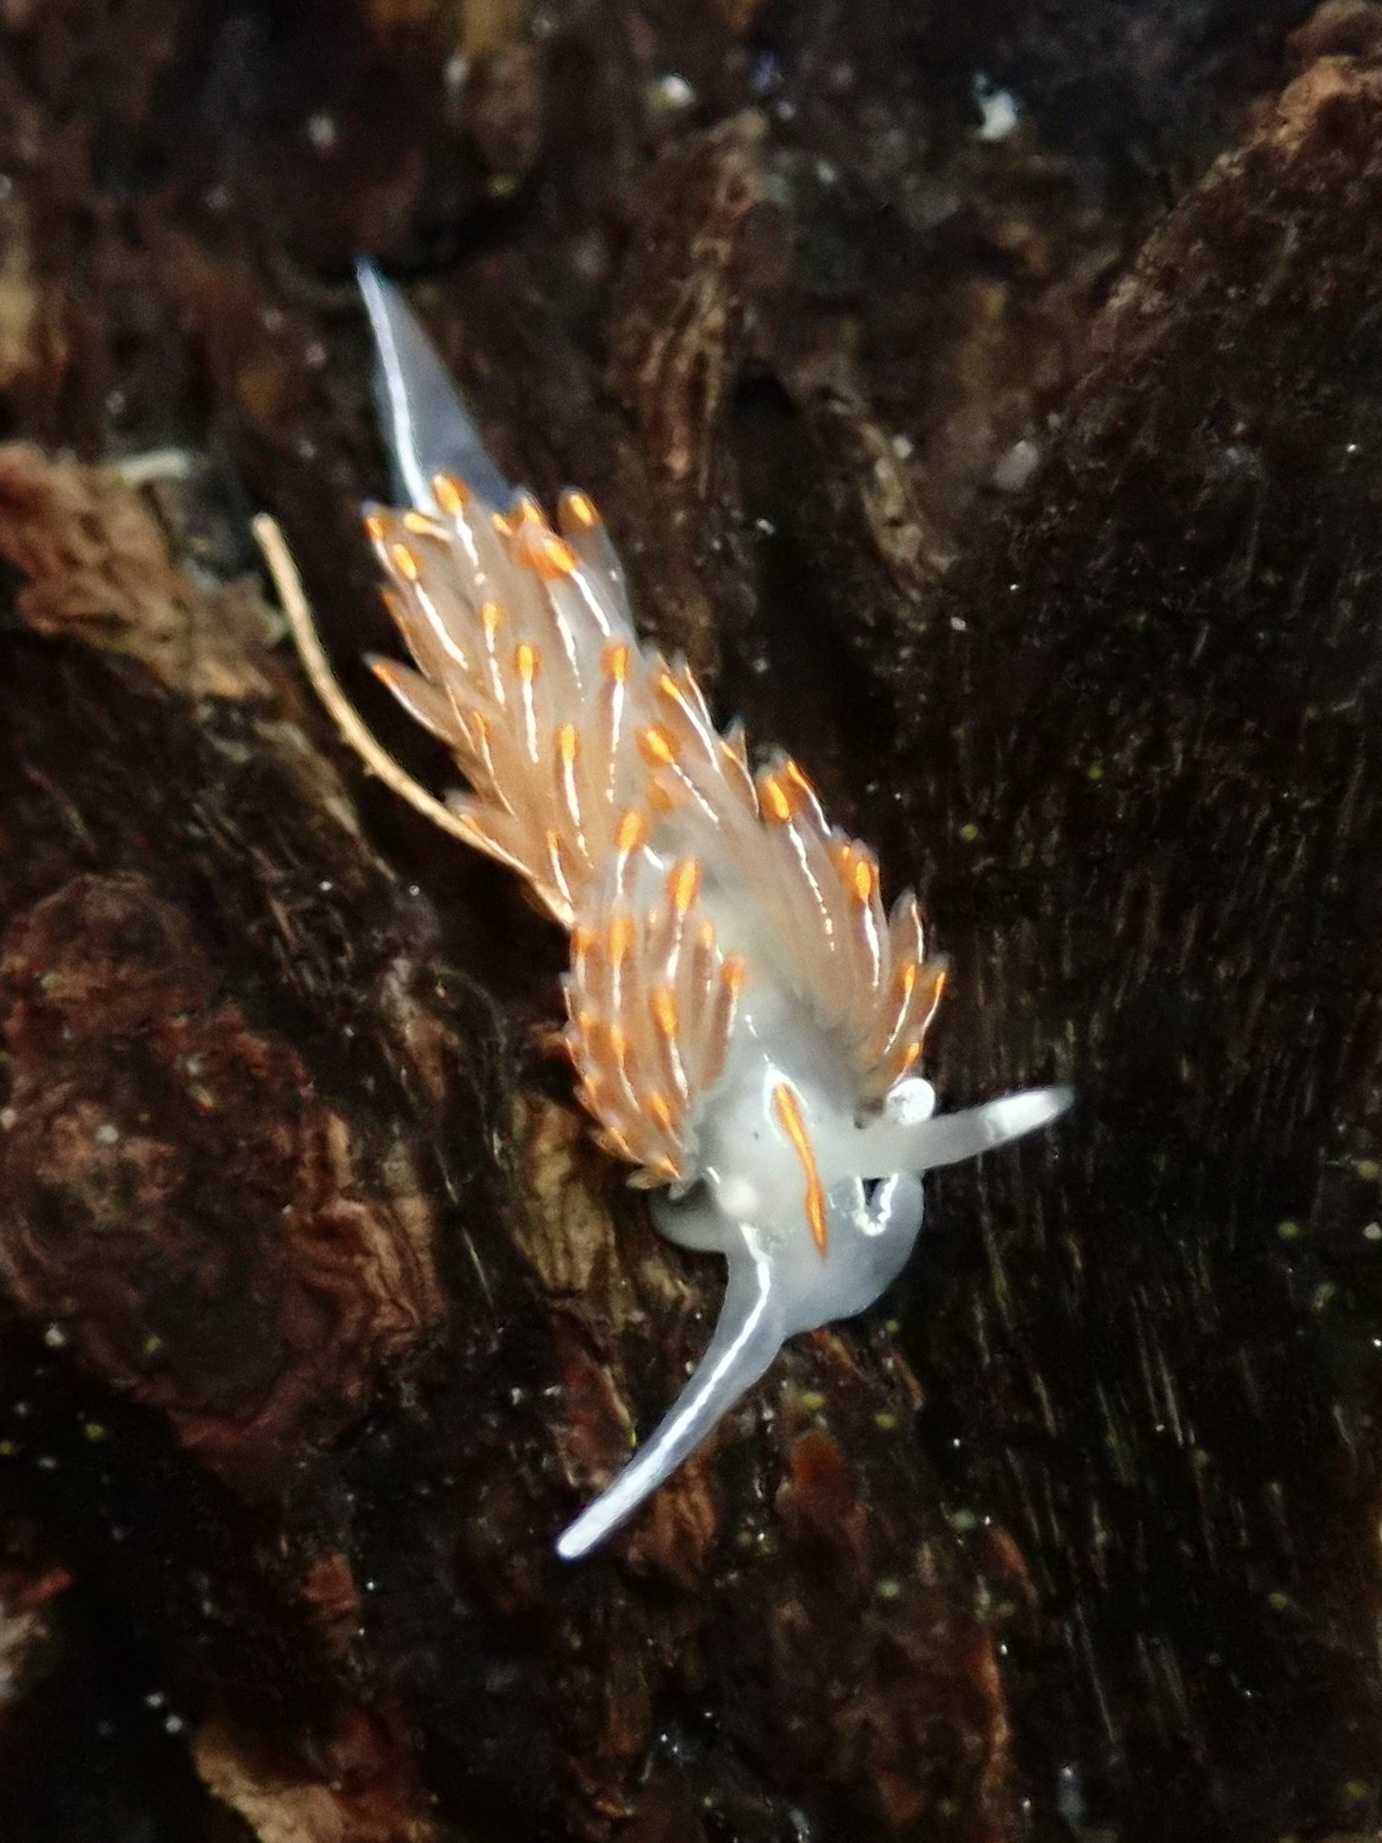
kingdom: Animalia
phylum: Mollusca
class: Gastropoda
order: Nudibranchia
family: Myrrhinidae
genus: Hermissenda
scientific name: Hermissenda crassicornis
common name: Hermissenda
